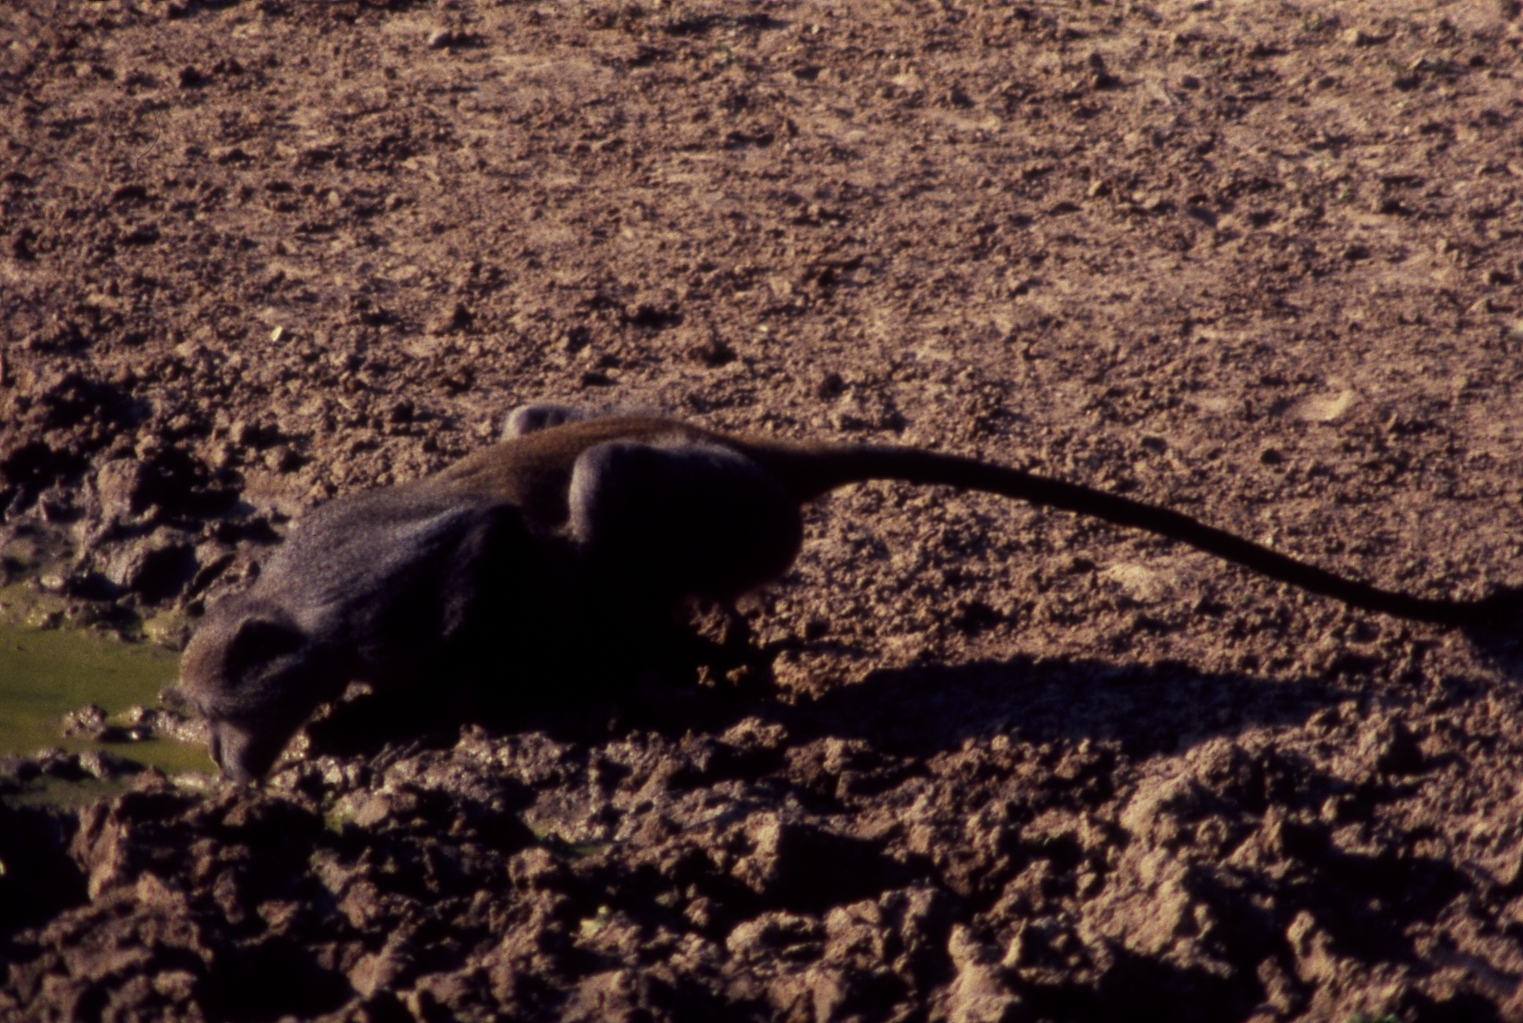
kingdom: Animalia
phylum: Chordata
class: Mammalia
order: Primates
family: Cercopithecidae
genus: Cercopithecus
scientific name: Cercopithecus mitis
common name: Blue monkey
